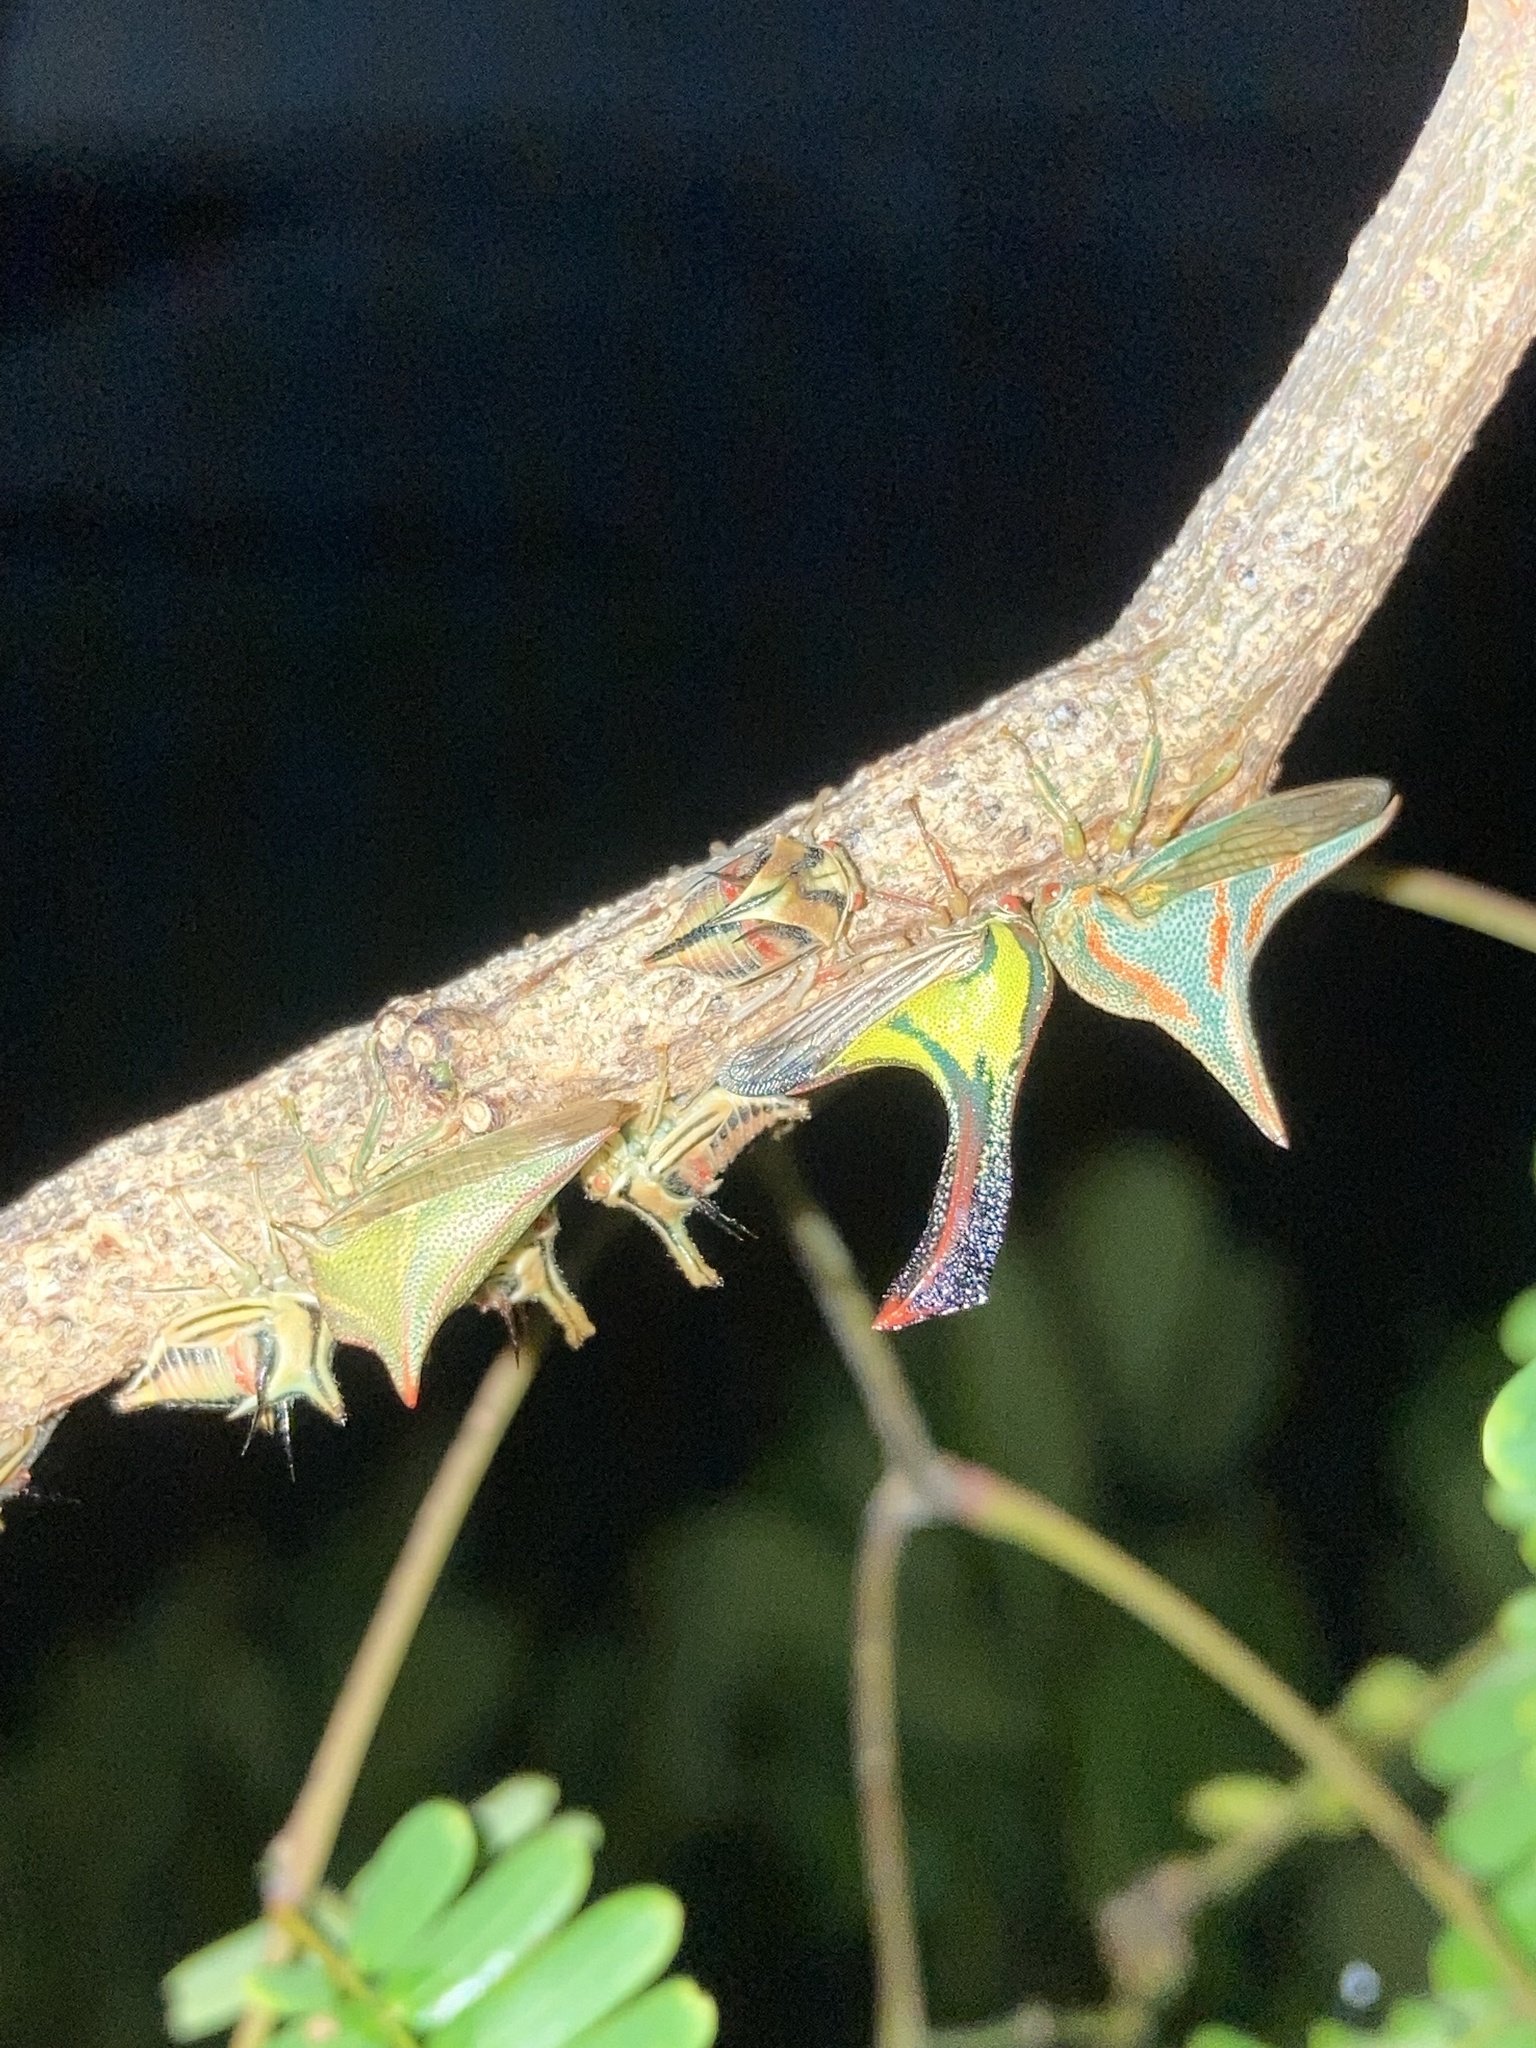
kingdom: Animalia
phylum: Arthropoda
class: Insecta
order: Hemiptera
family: Membracidae
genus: Umbonia
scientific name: Umbonia crassicornis
